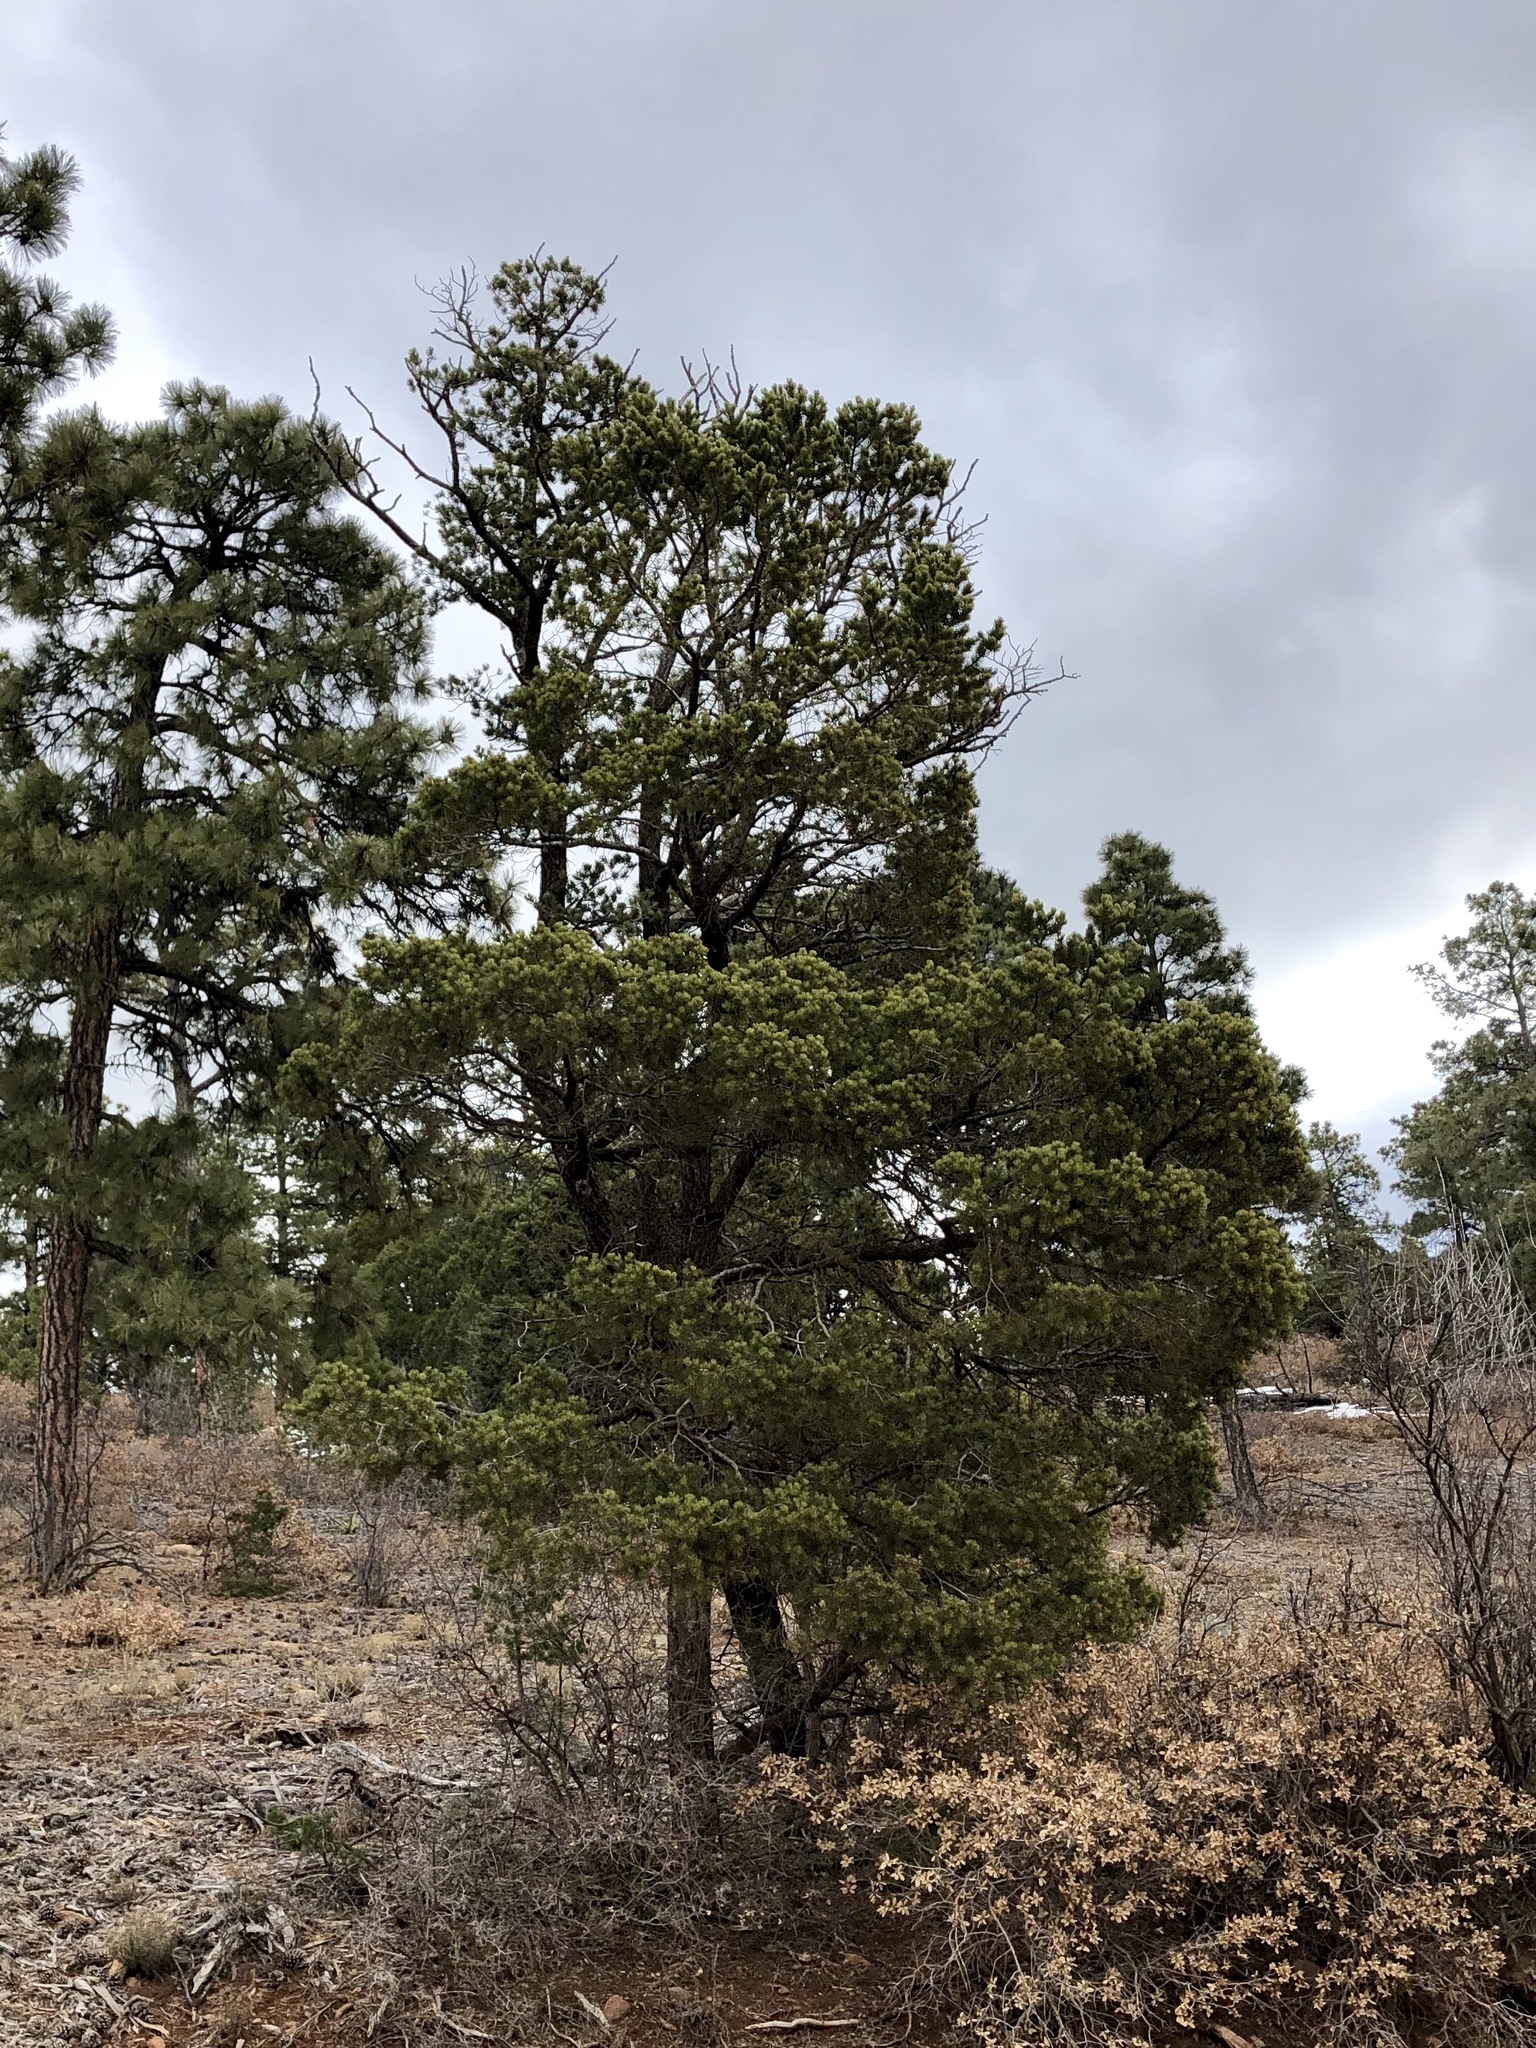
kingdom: Plantae
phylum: Tracheophyta
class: Pinopsida
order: Pinales
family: Pinaceae
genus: Pinus
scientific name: Pinus edulis
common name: Colorado pinyon
